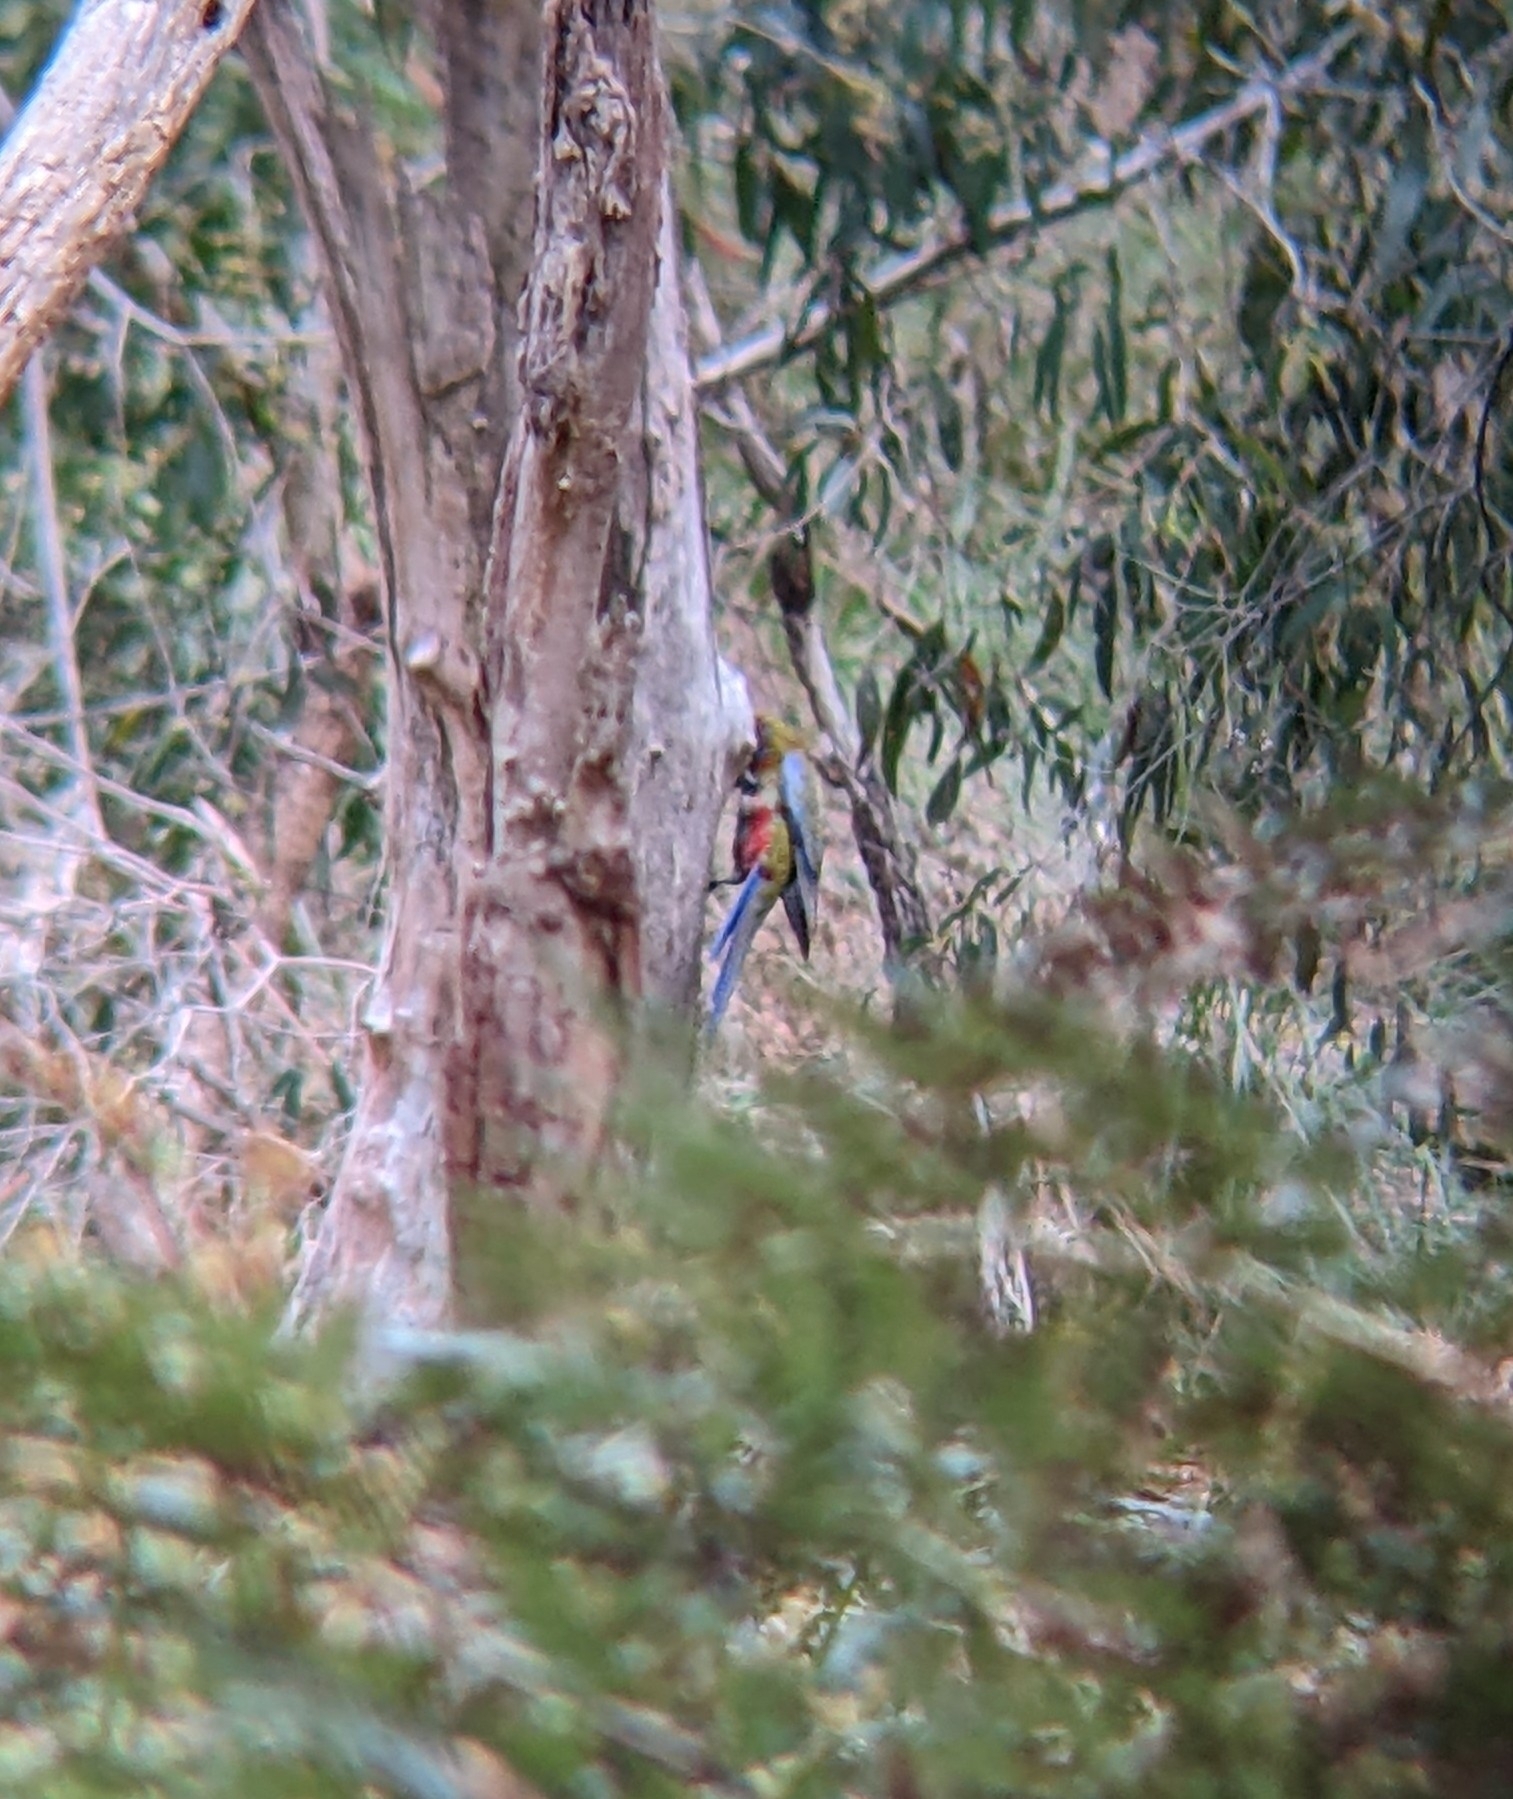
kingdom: Animalia
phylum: Chordata
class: Aves
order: Psittaciformes
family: Psittacidae
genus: Platycercus
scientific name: Platycercus elegans
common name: Crimson rosella
